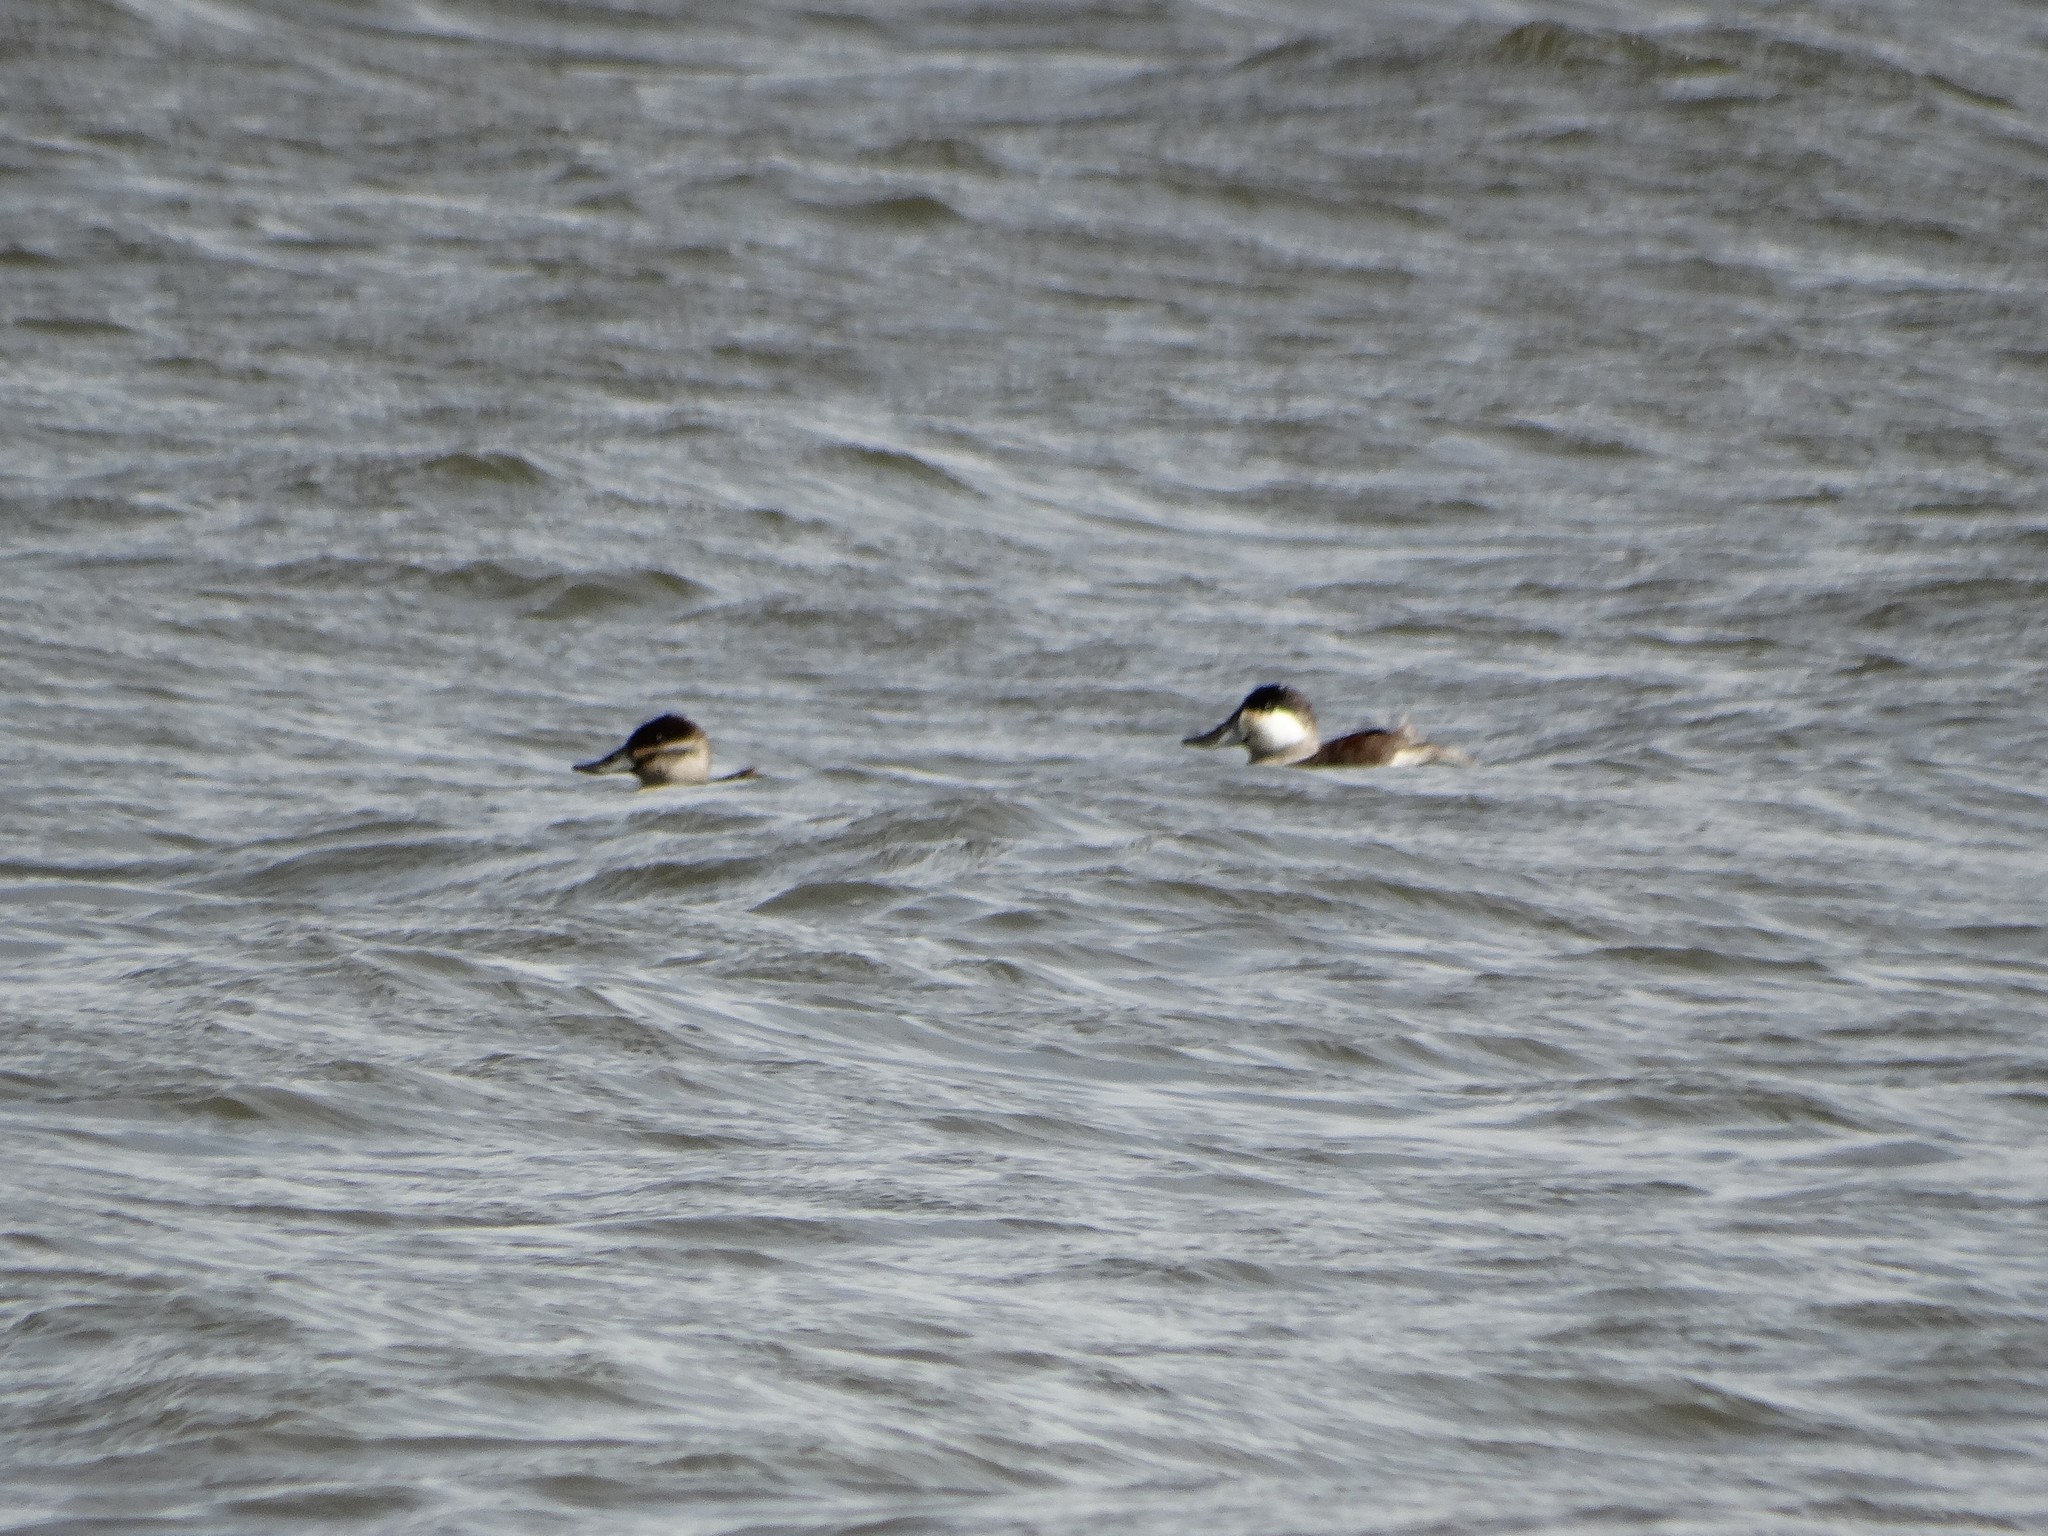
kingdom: Animalia
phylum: Chordata
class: Aves
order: Anseriformes
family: Anatidae
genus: Oxyura
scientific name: Oxyura jamaicensis
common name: Ruddy duck
